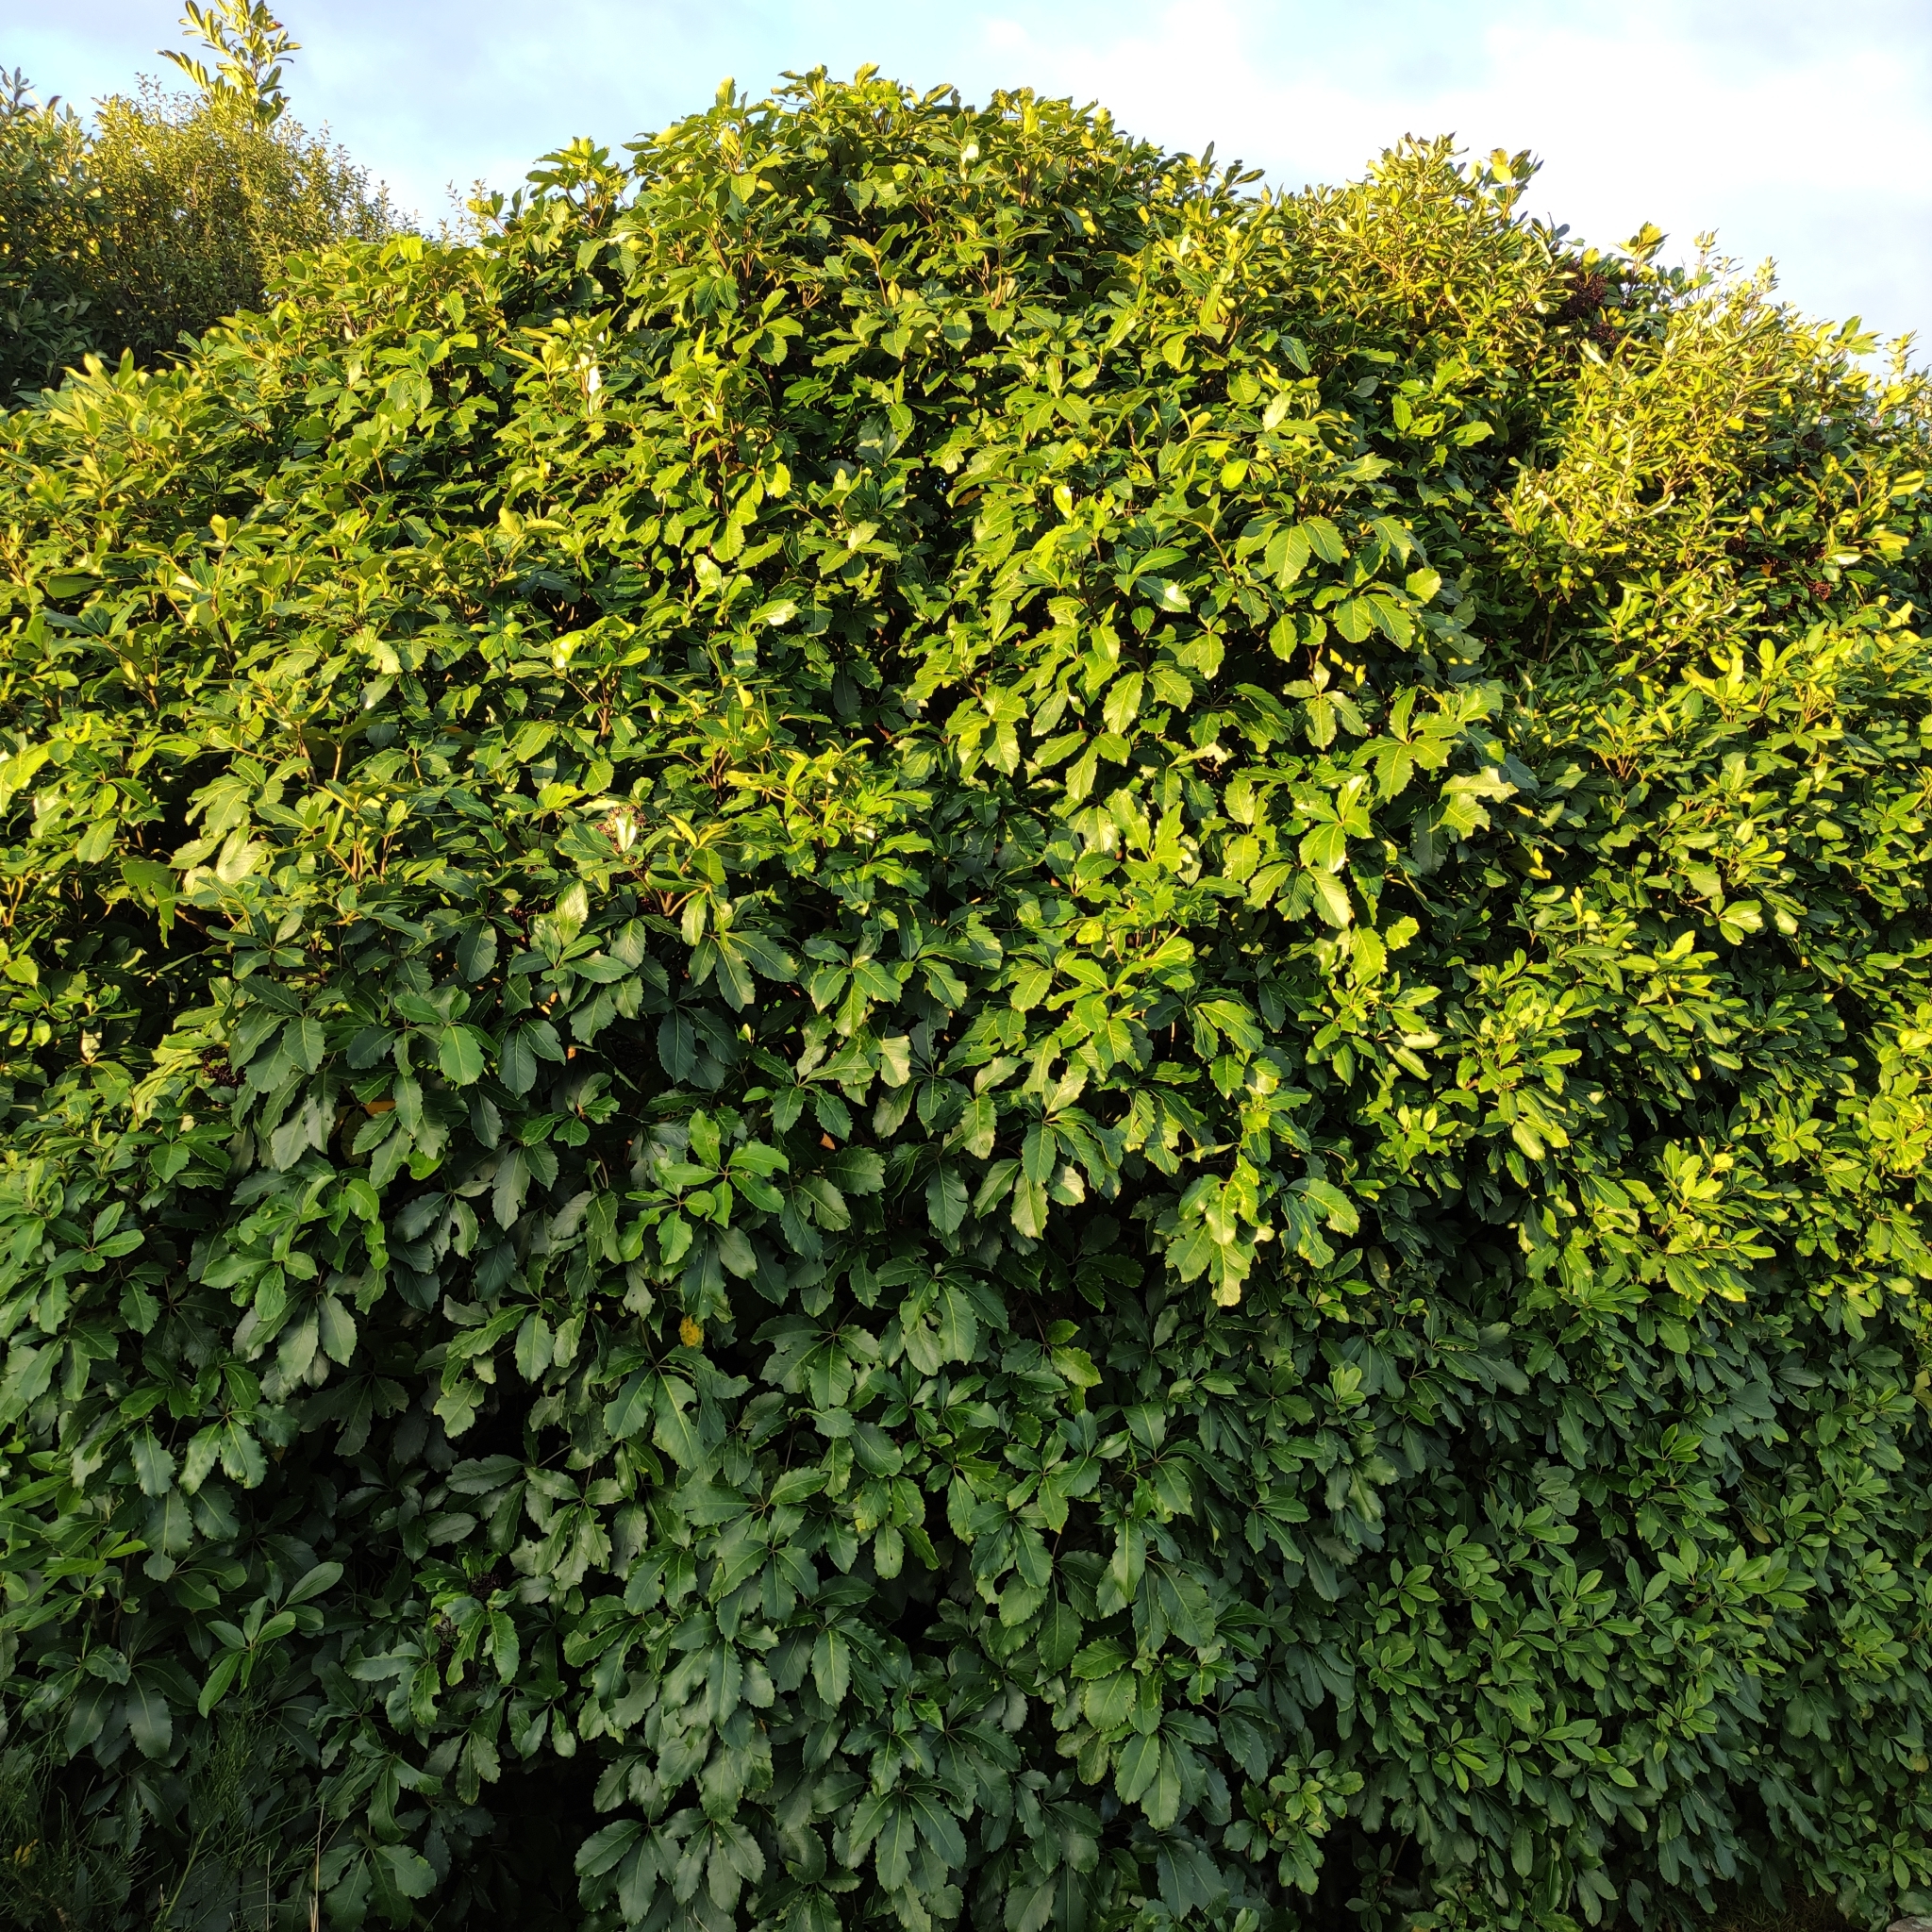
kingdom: Plantae
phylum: Tracheophyta
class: Magnoliopsida
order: Apiales
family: Araliaceae
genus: Neopanax
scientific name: Neopanax arboreus
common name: Five-fingers
